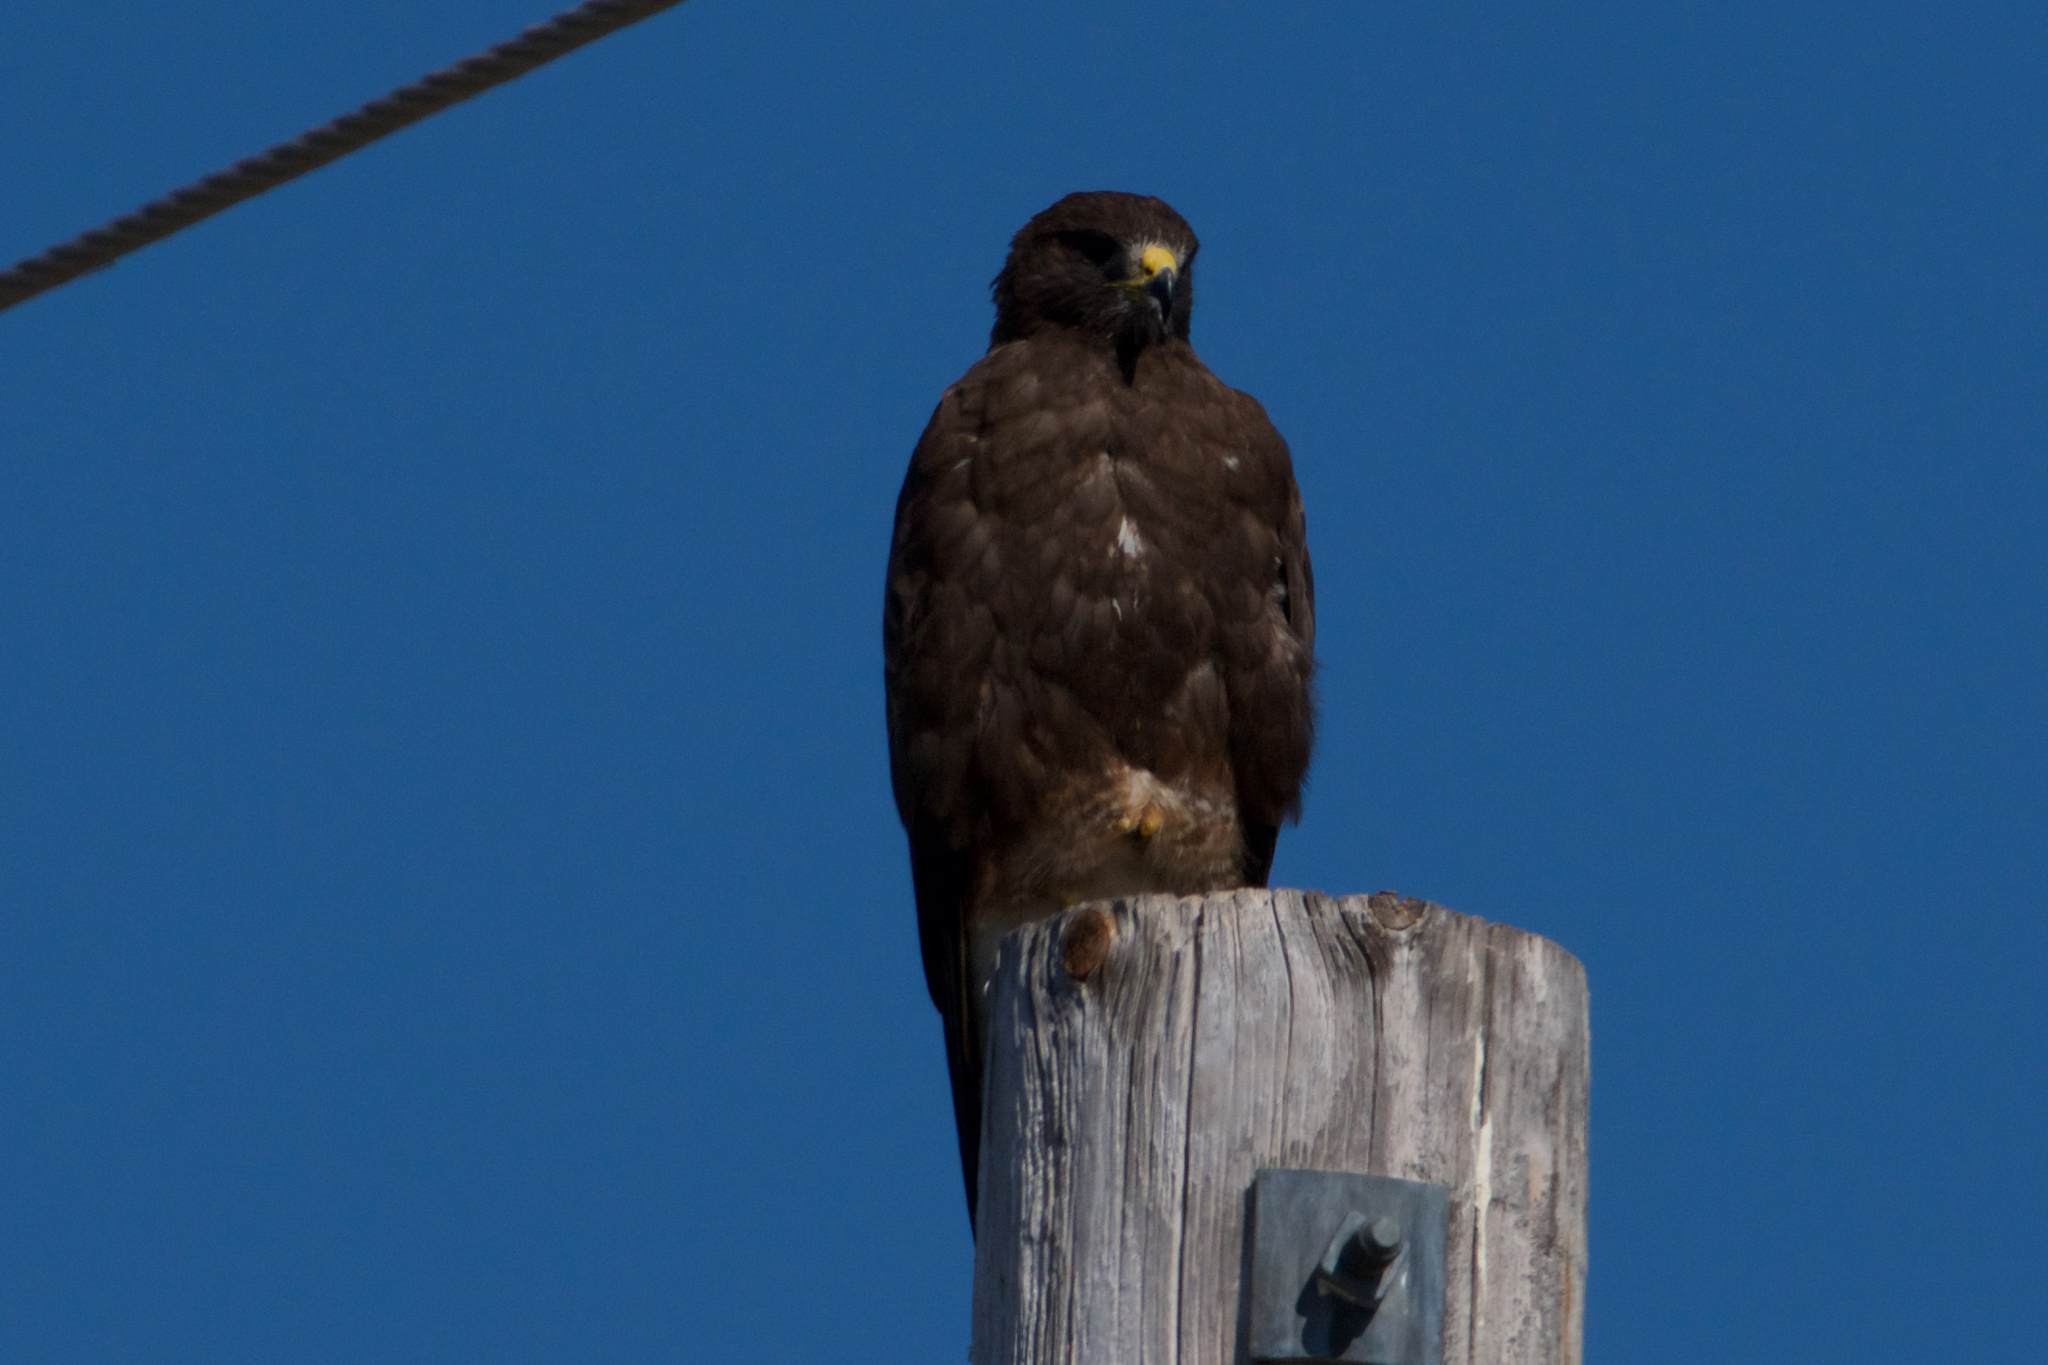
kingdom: Animalia
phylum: Chordata
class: Aves
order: Accipitriformes
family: Accipitridae
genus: Buteo
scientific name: Buteo swainsoni
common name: Swainson's hawk
